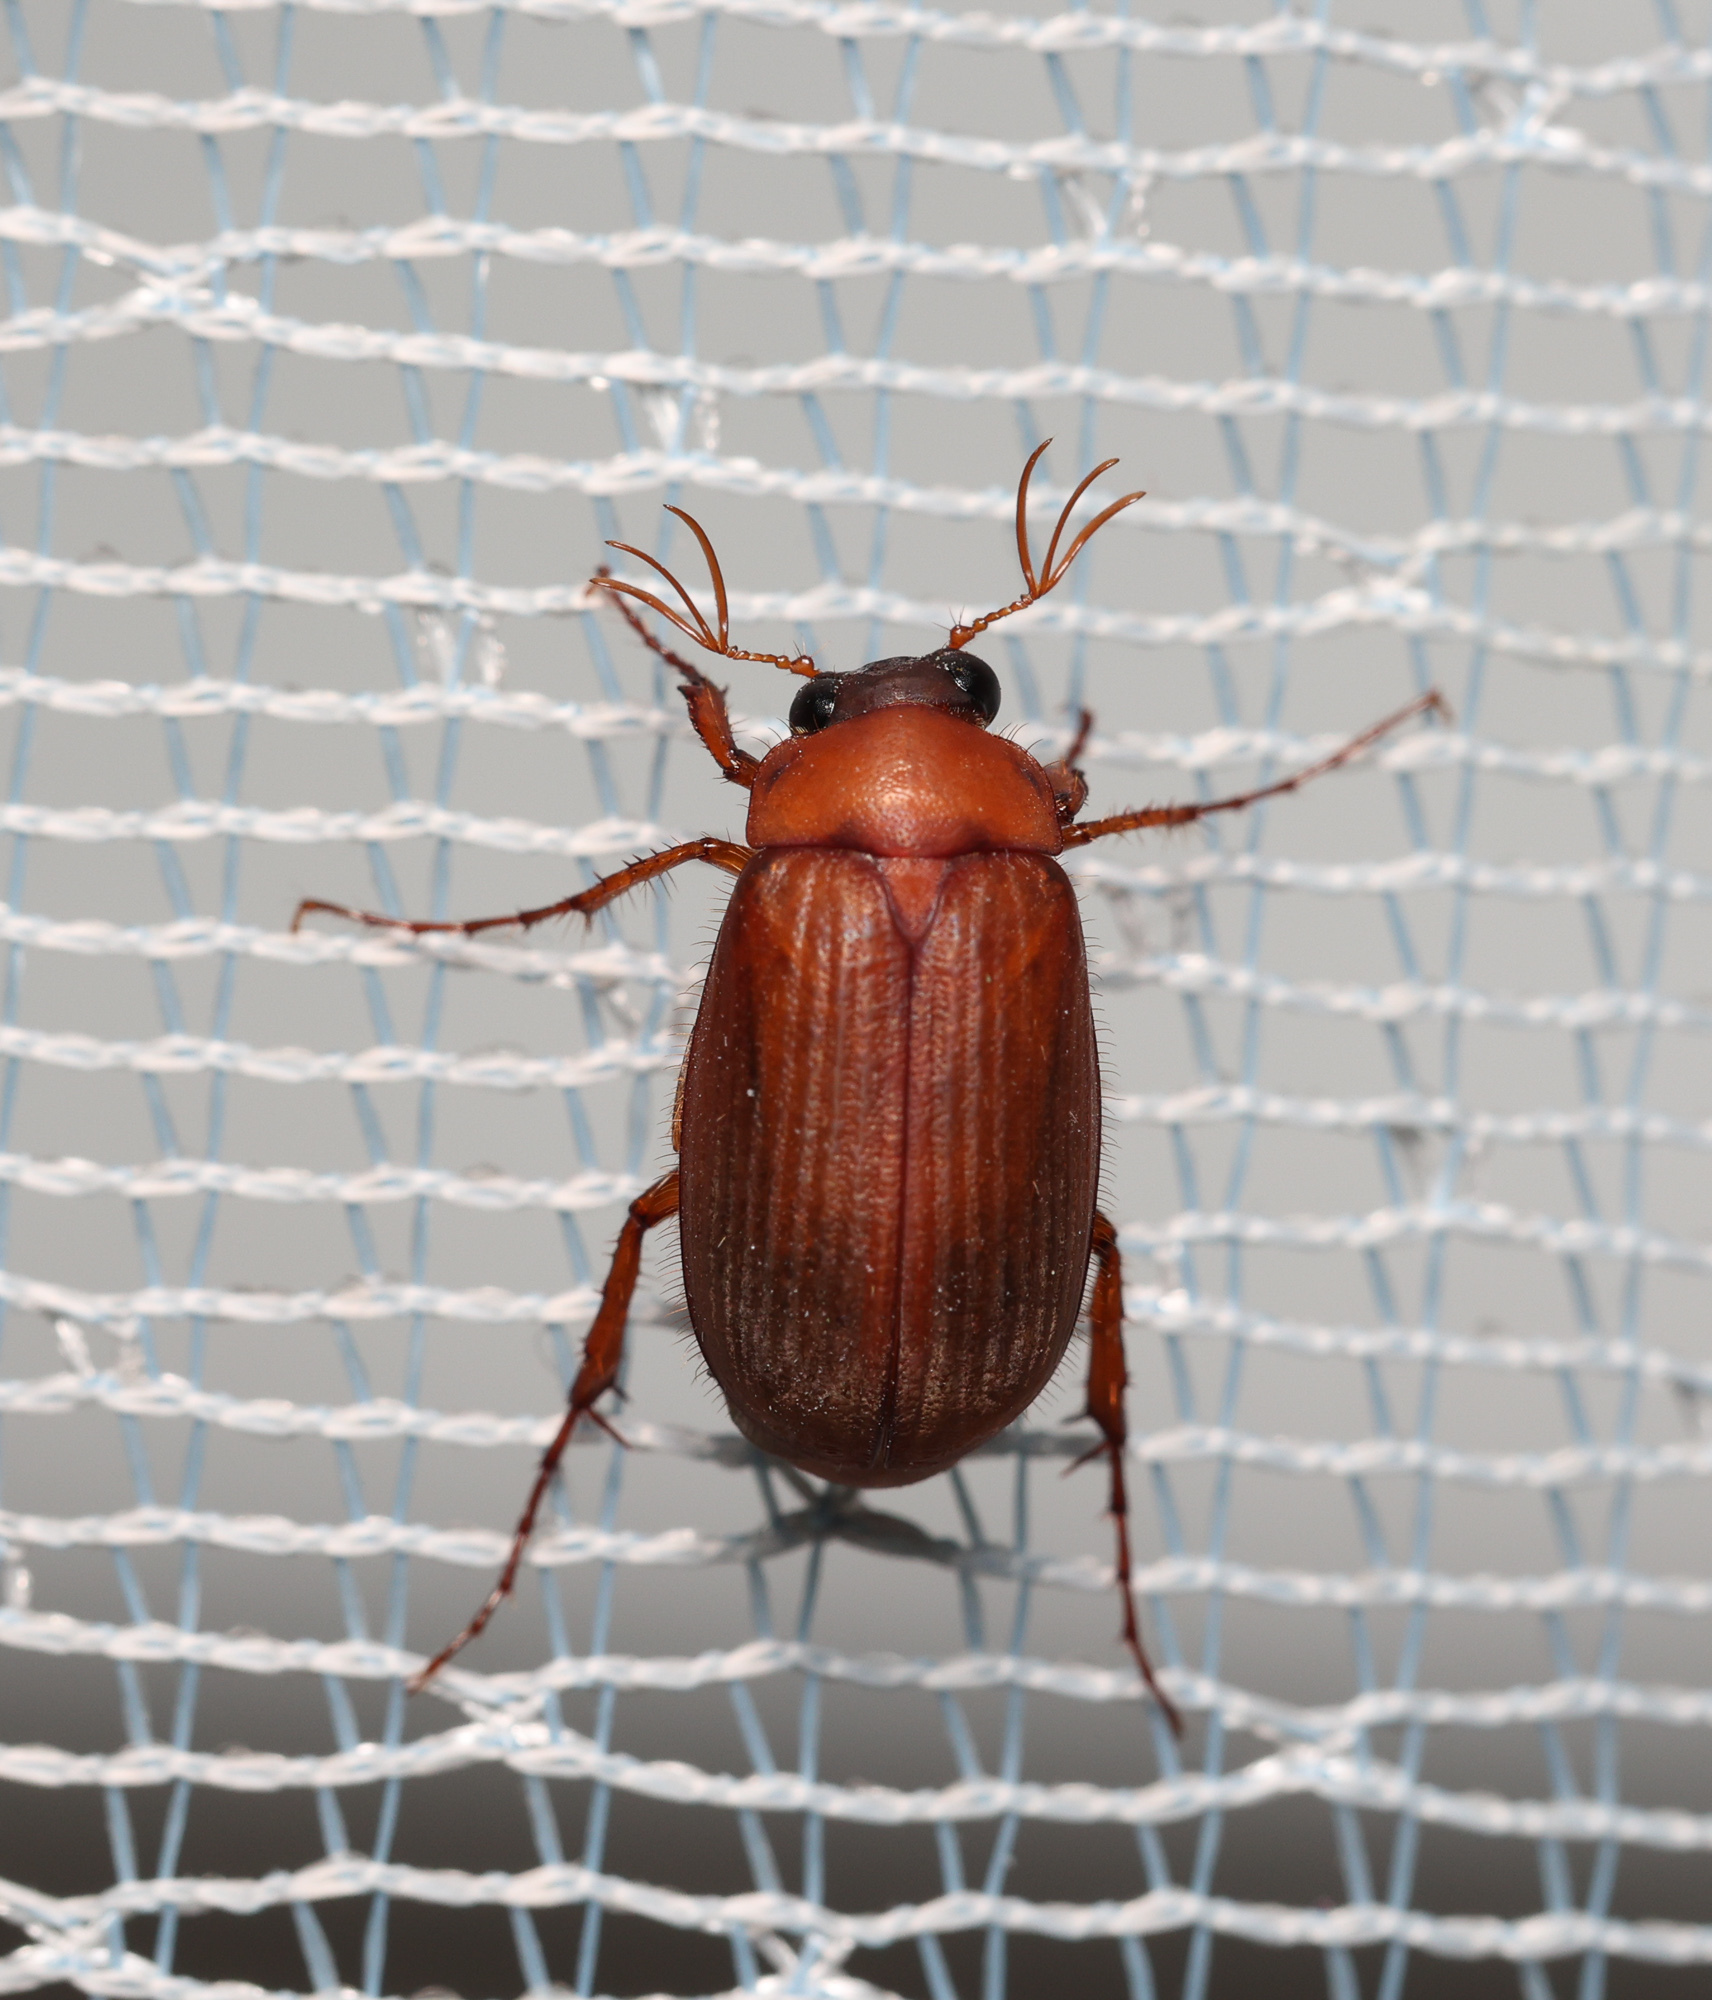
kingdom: Animalia
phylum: Arthropoda
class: Insecta
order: Coleoptera
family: Scarabaeidae
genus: Serica
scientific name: Serica brunnea
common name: Brown chafer
